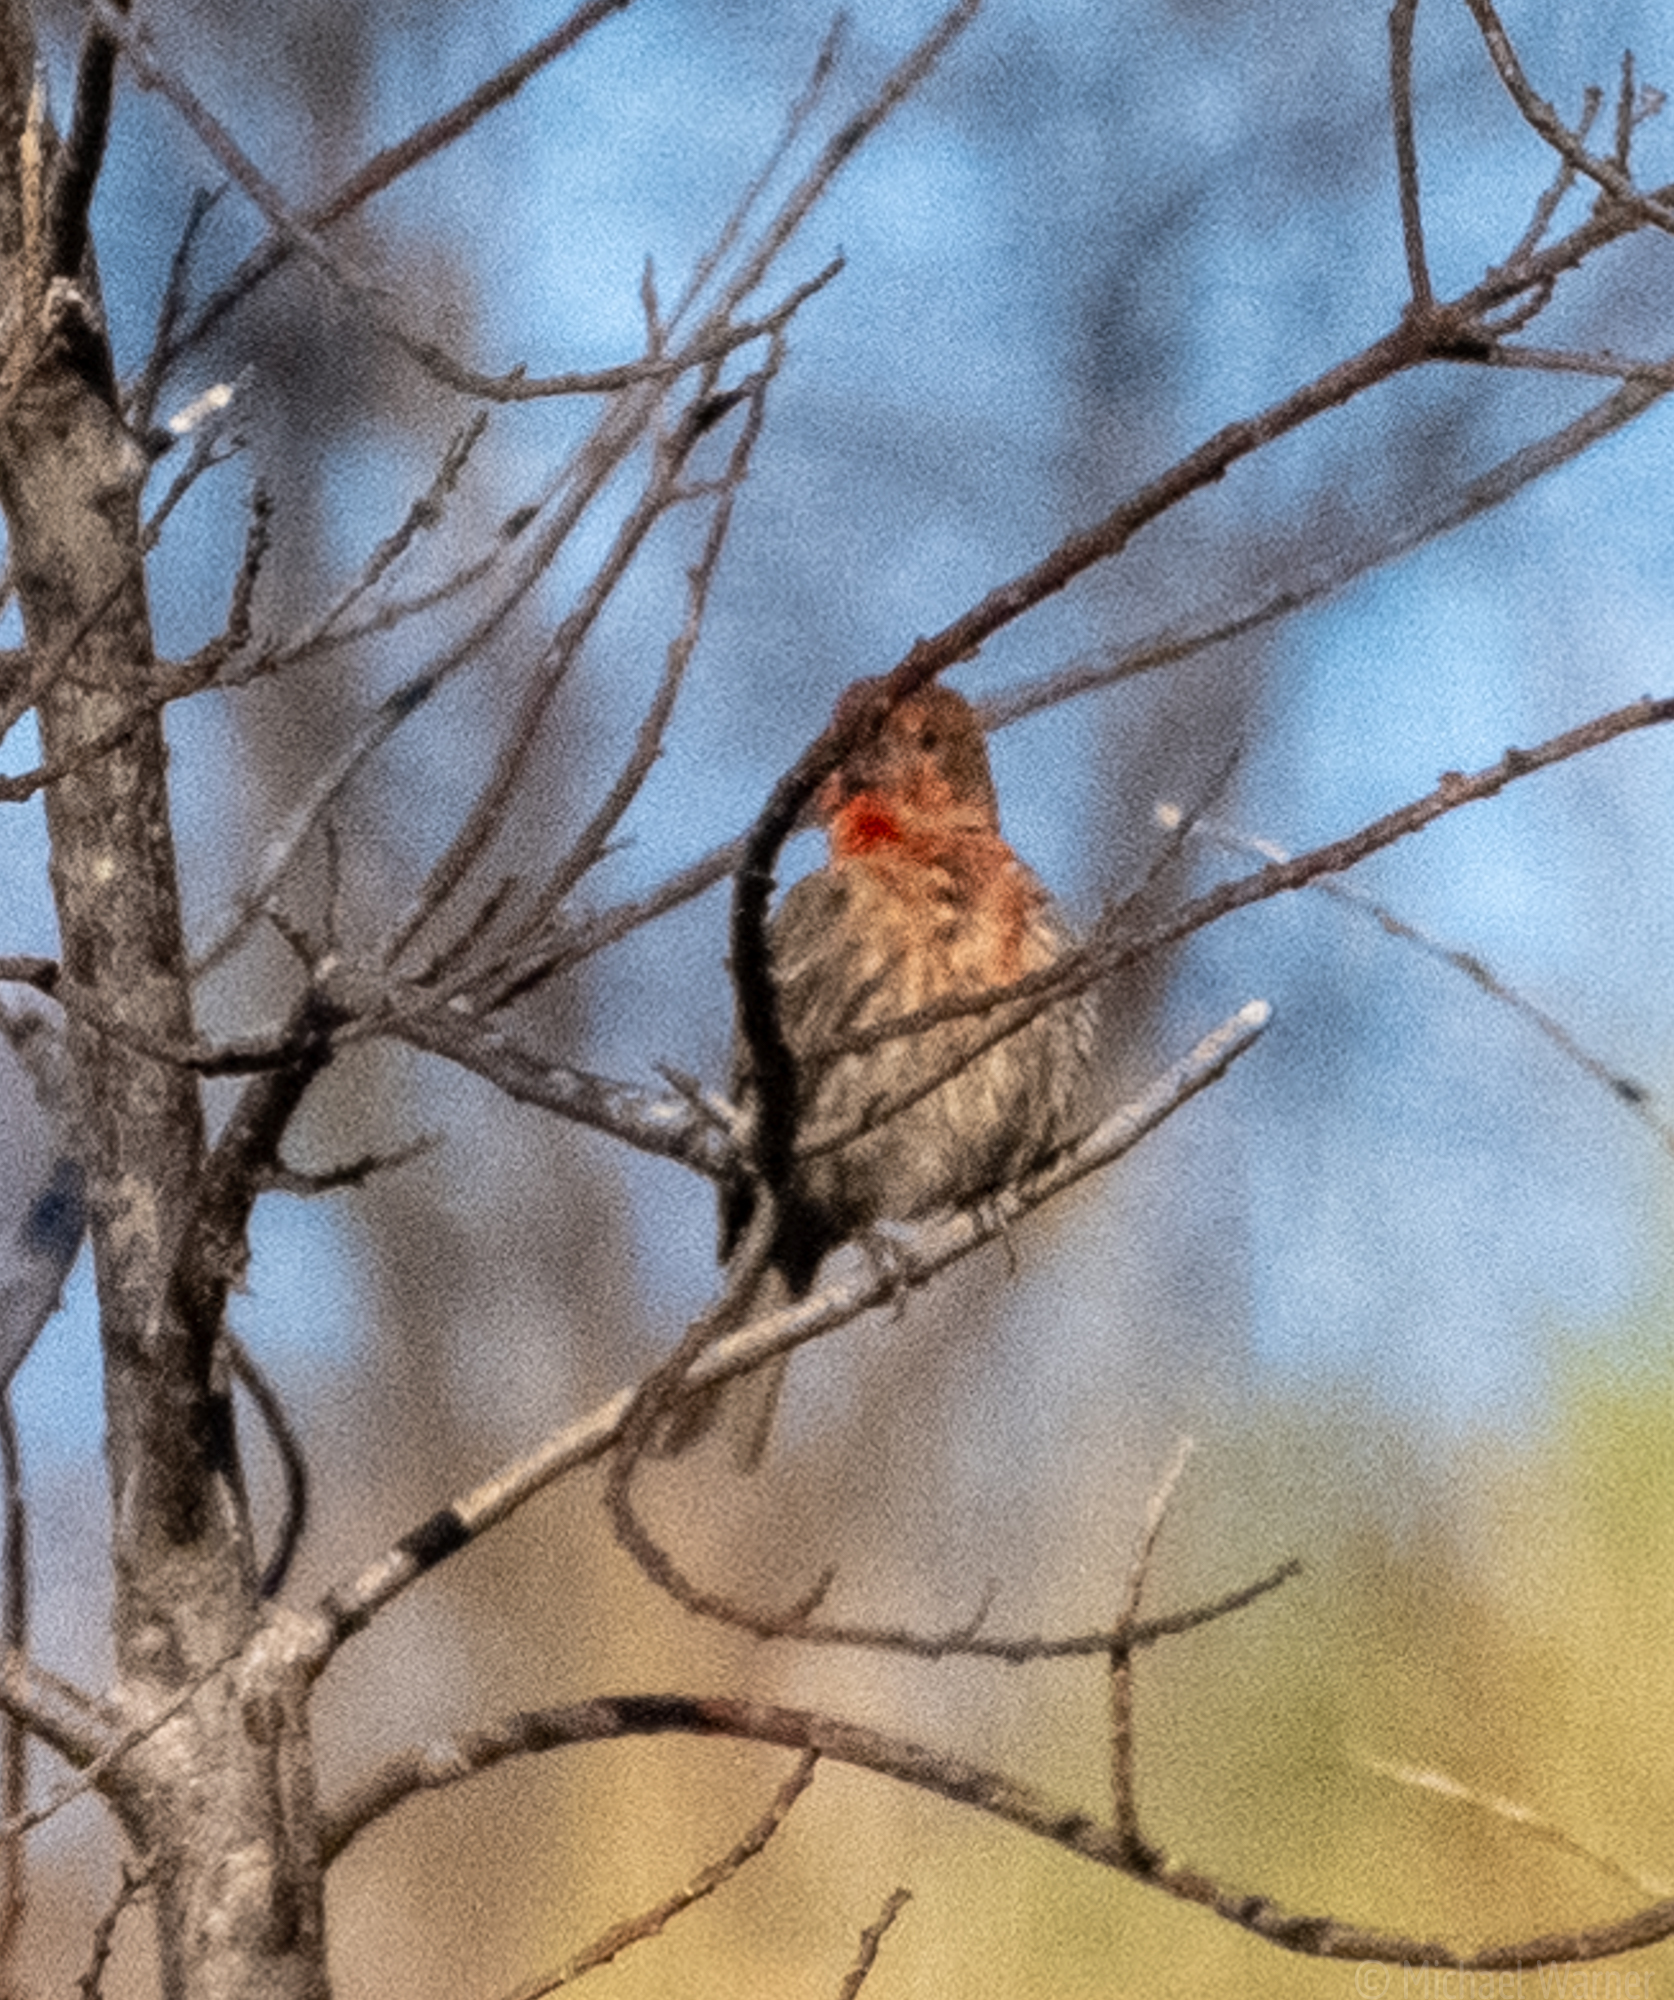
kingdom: Animalia
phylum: Chordata
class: Aves
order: Passeriformes
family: Fringillidae
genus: Haemorhous
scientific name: Haemorhous mexicanus
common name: House finch
